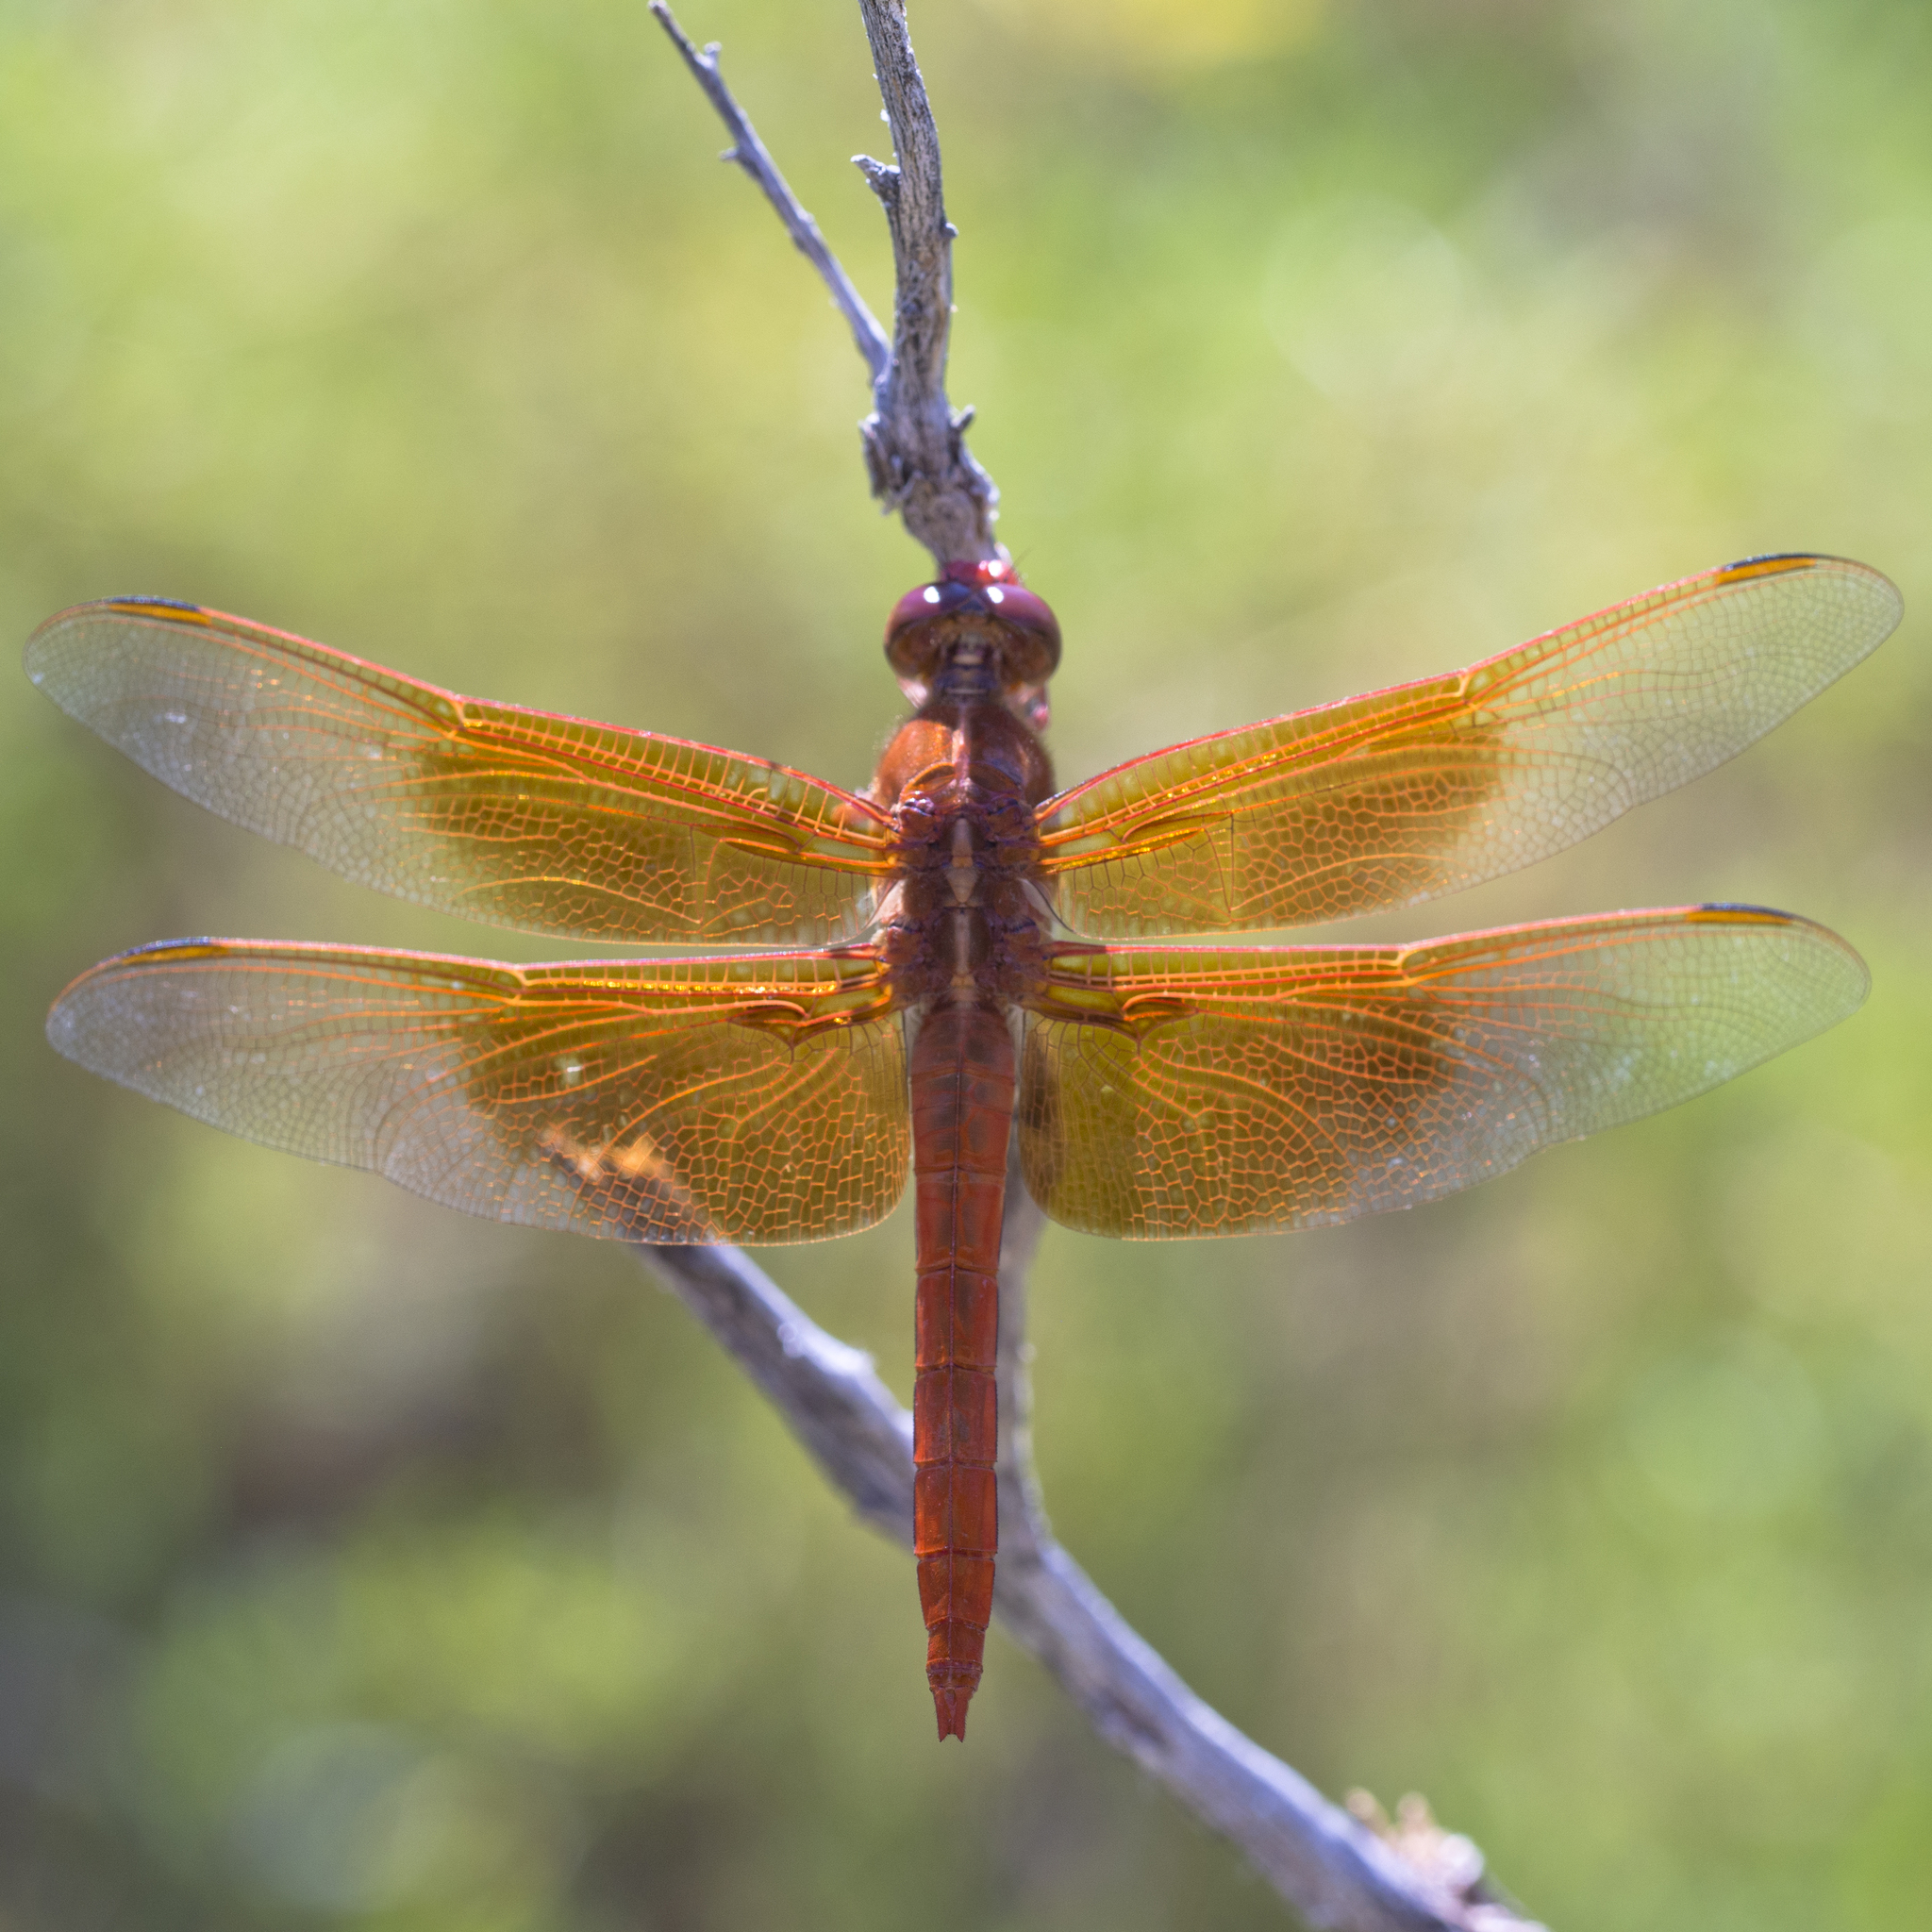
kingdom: Animalia
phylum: Arthropoda
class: Insecta
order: Odonata
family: Libellulidae
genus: Libellula
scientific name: Libellula saturata
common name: Flame skimmer
